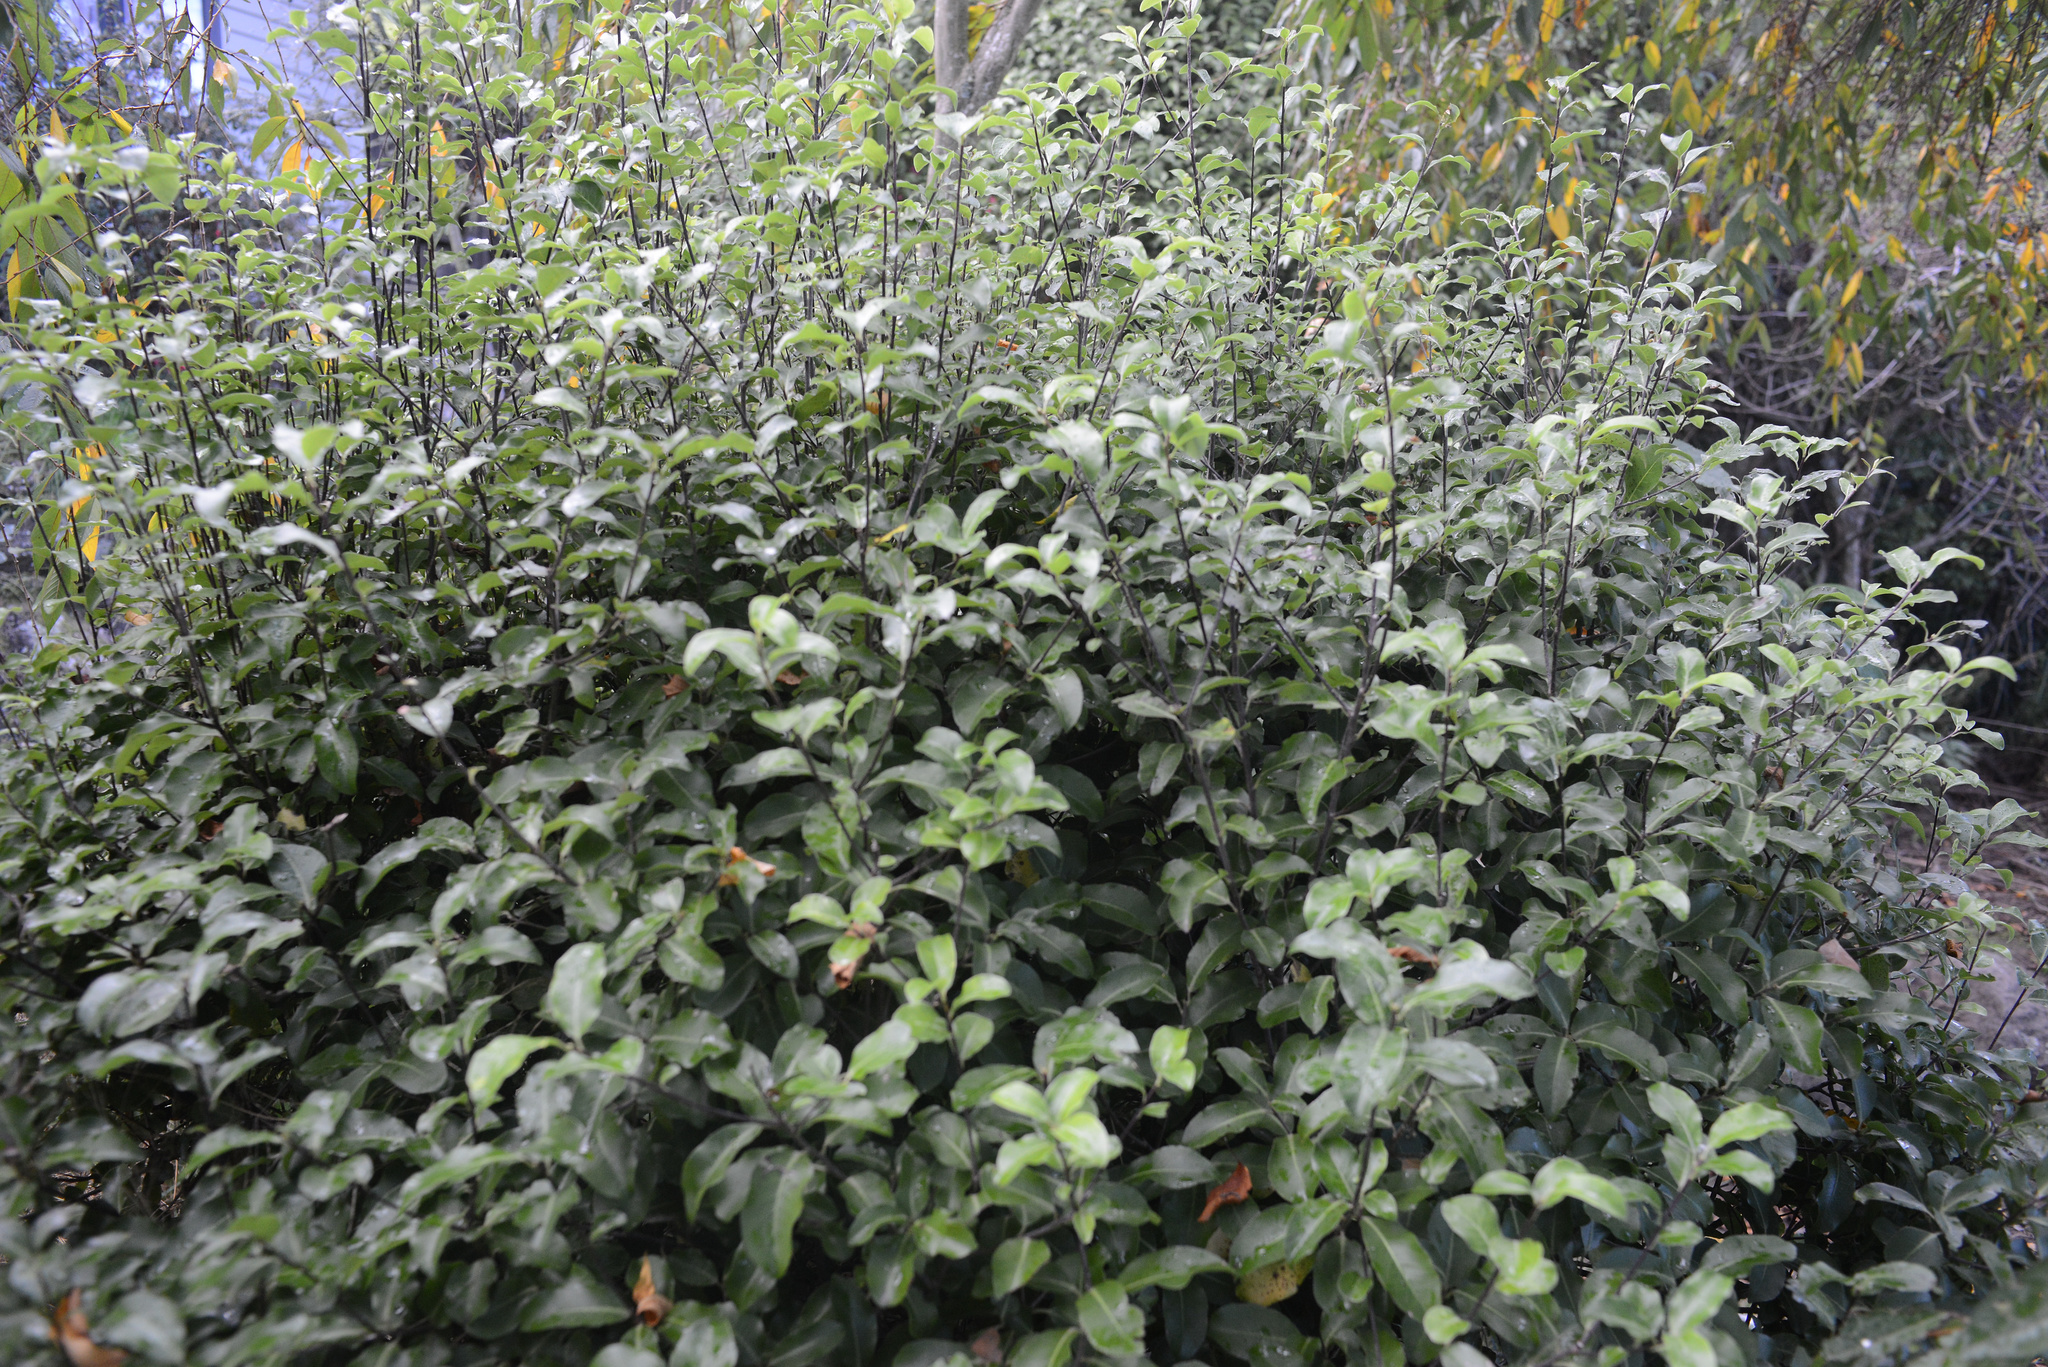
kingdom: Plantae
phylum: Tracheophyta
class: Magnoliopsida
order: Apiales
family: Pittosporaceae
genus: Pittosporum
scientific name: Pittosporum tenuifolium
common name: Kohuhu
